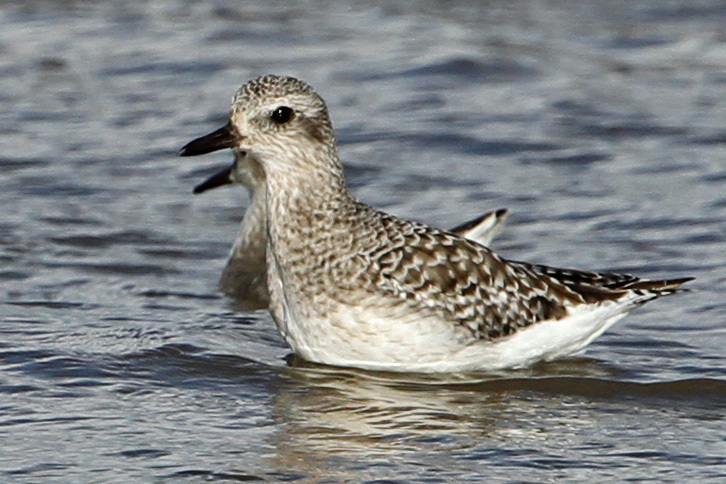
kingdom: Animalia
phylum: Chordata
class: Aves
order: Charadriiformes
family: Charadriidae
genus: Pluvialis
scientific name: Pluvialis squatarola
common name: Grey plover
